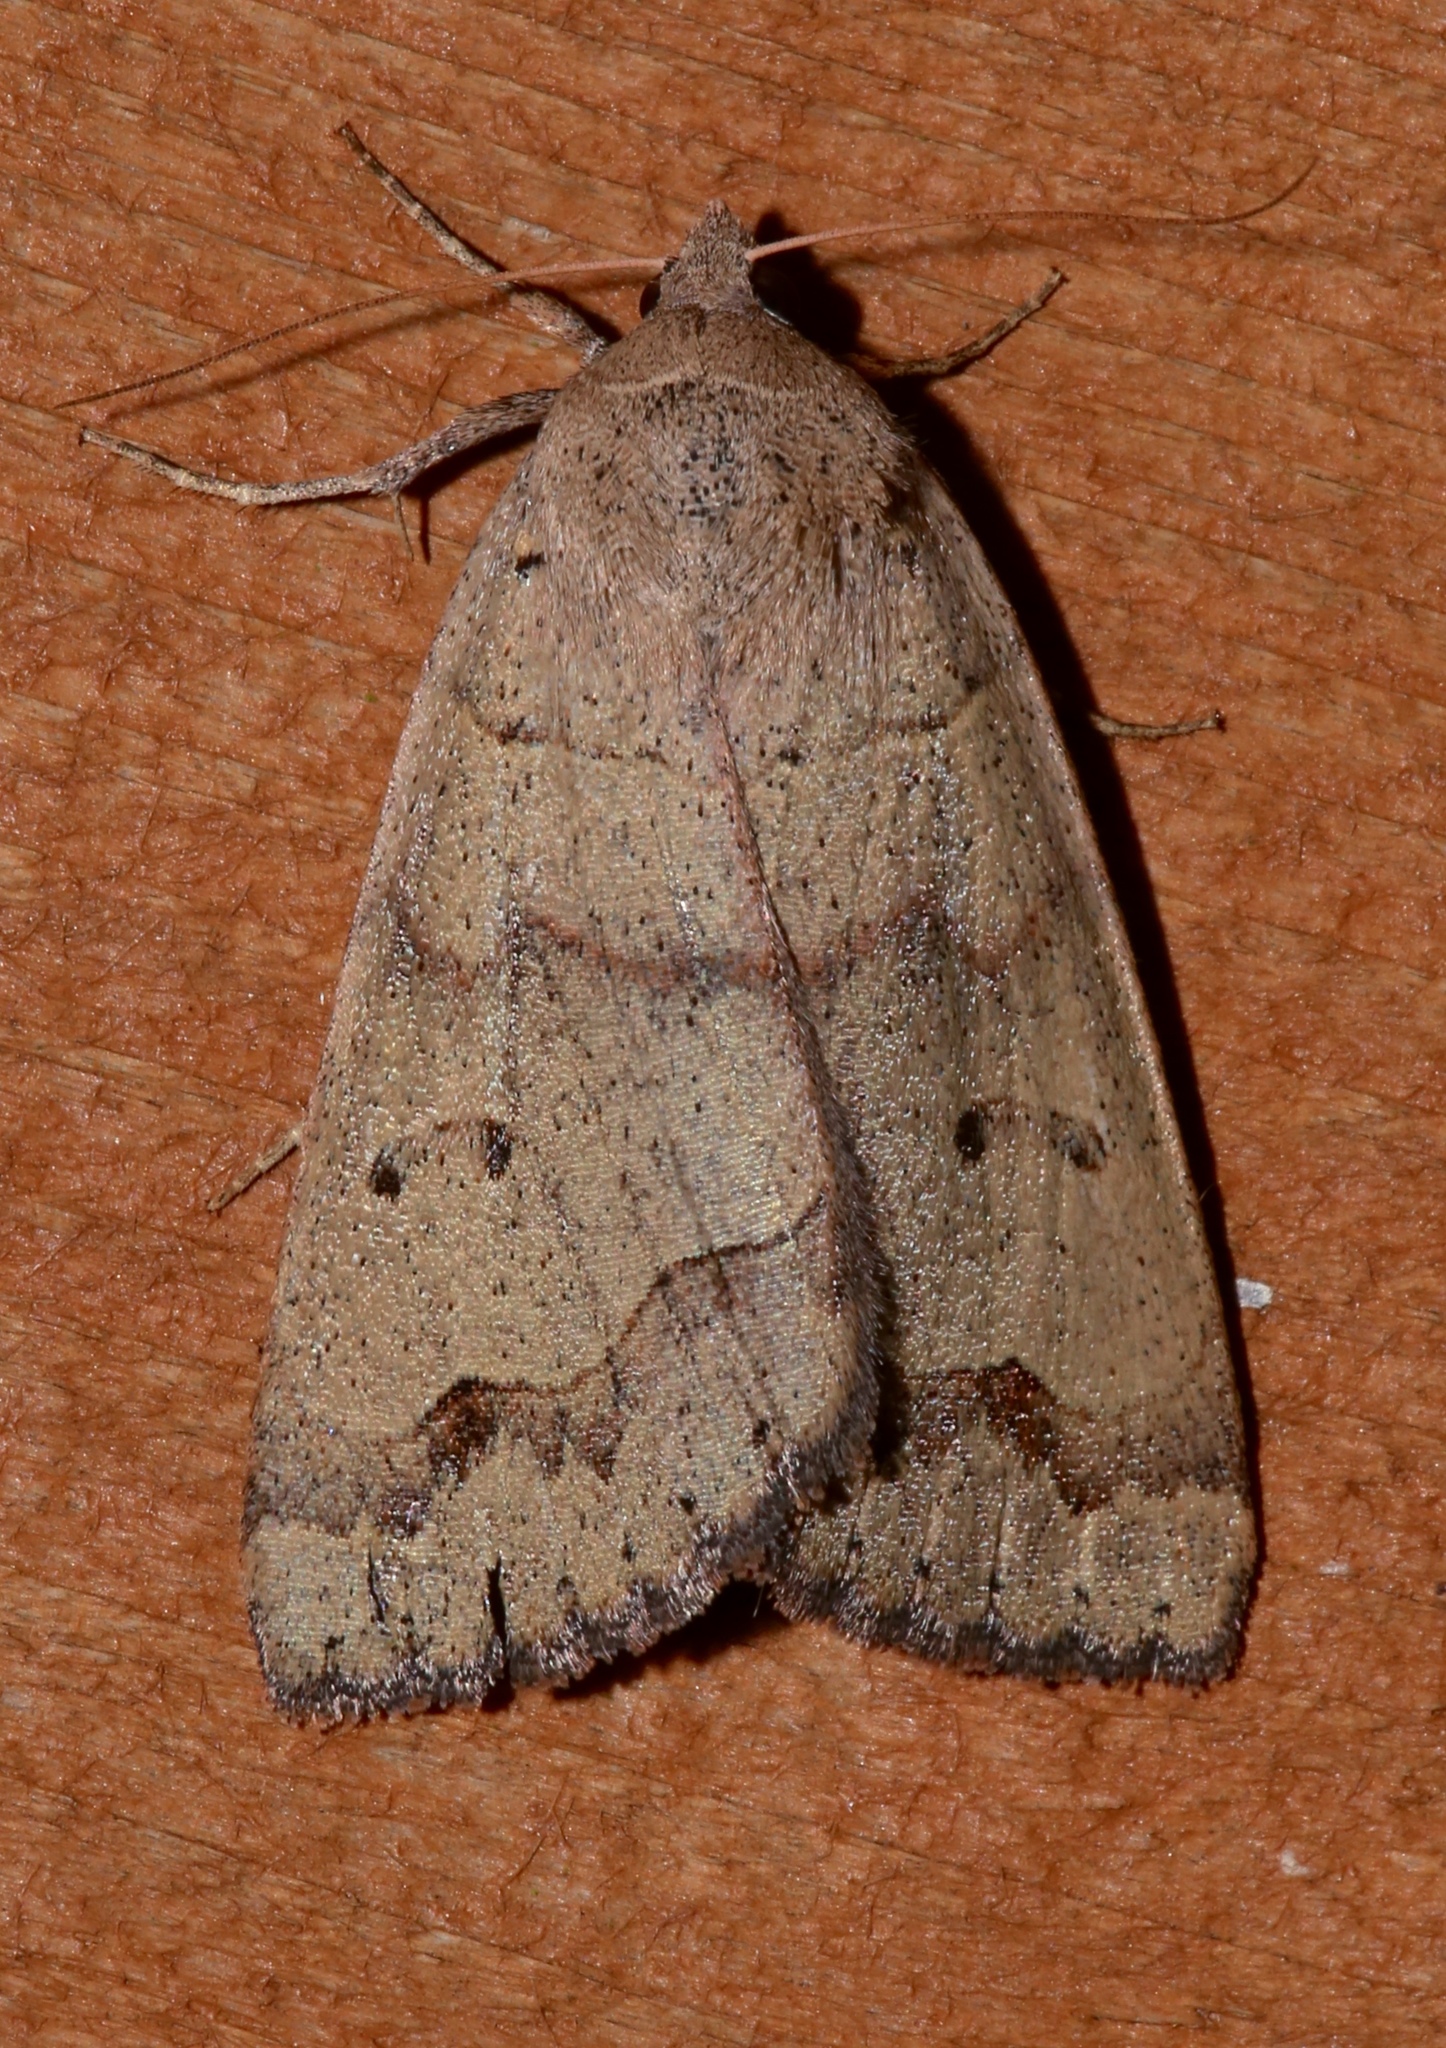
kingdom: Animalia
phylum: Arthropoda
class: Insecta
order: Lepidoptera
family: Erebidae
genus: Phoberia
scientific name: Phoberia atomaris
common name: Common oak moth
